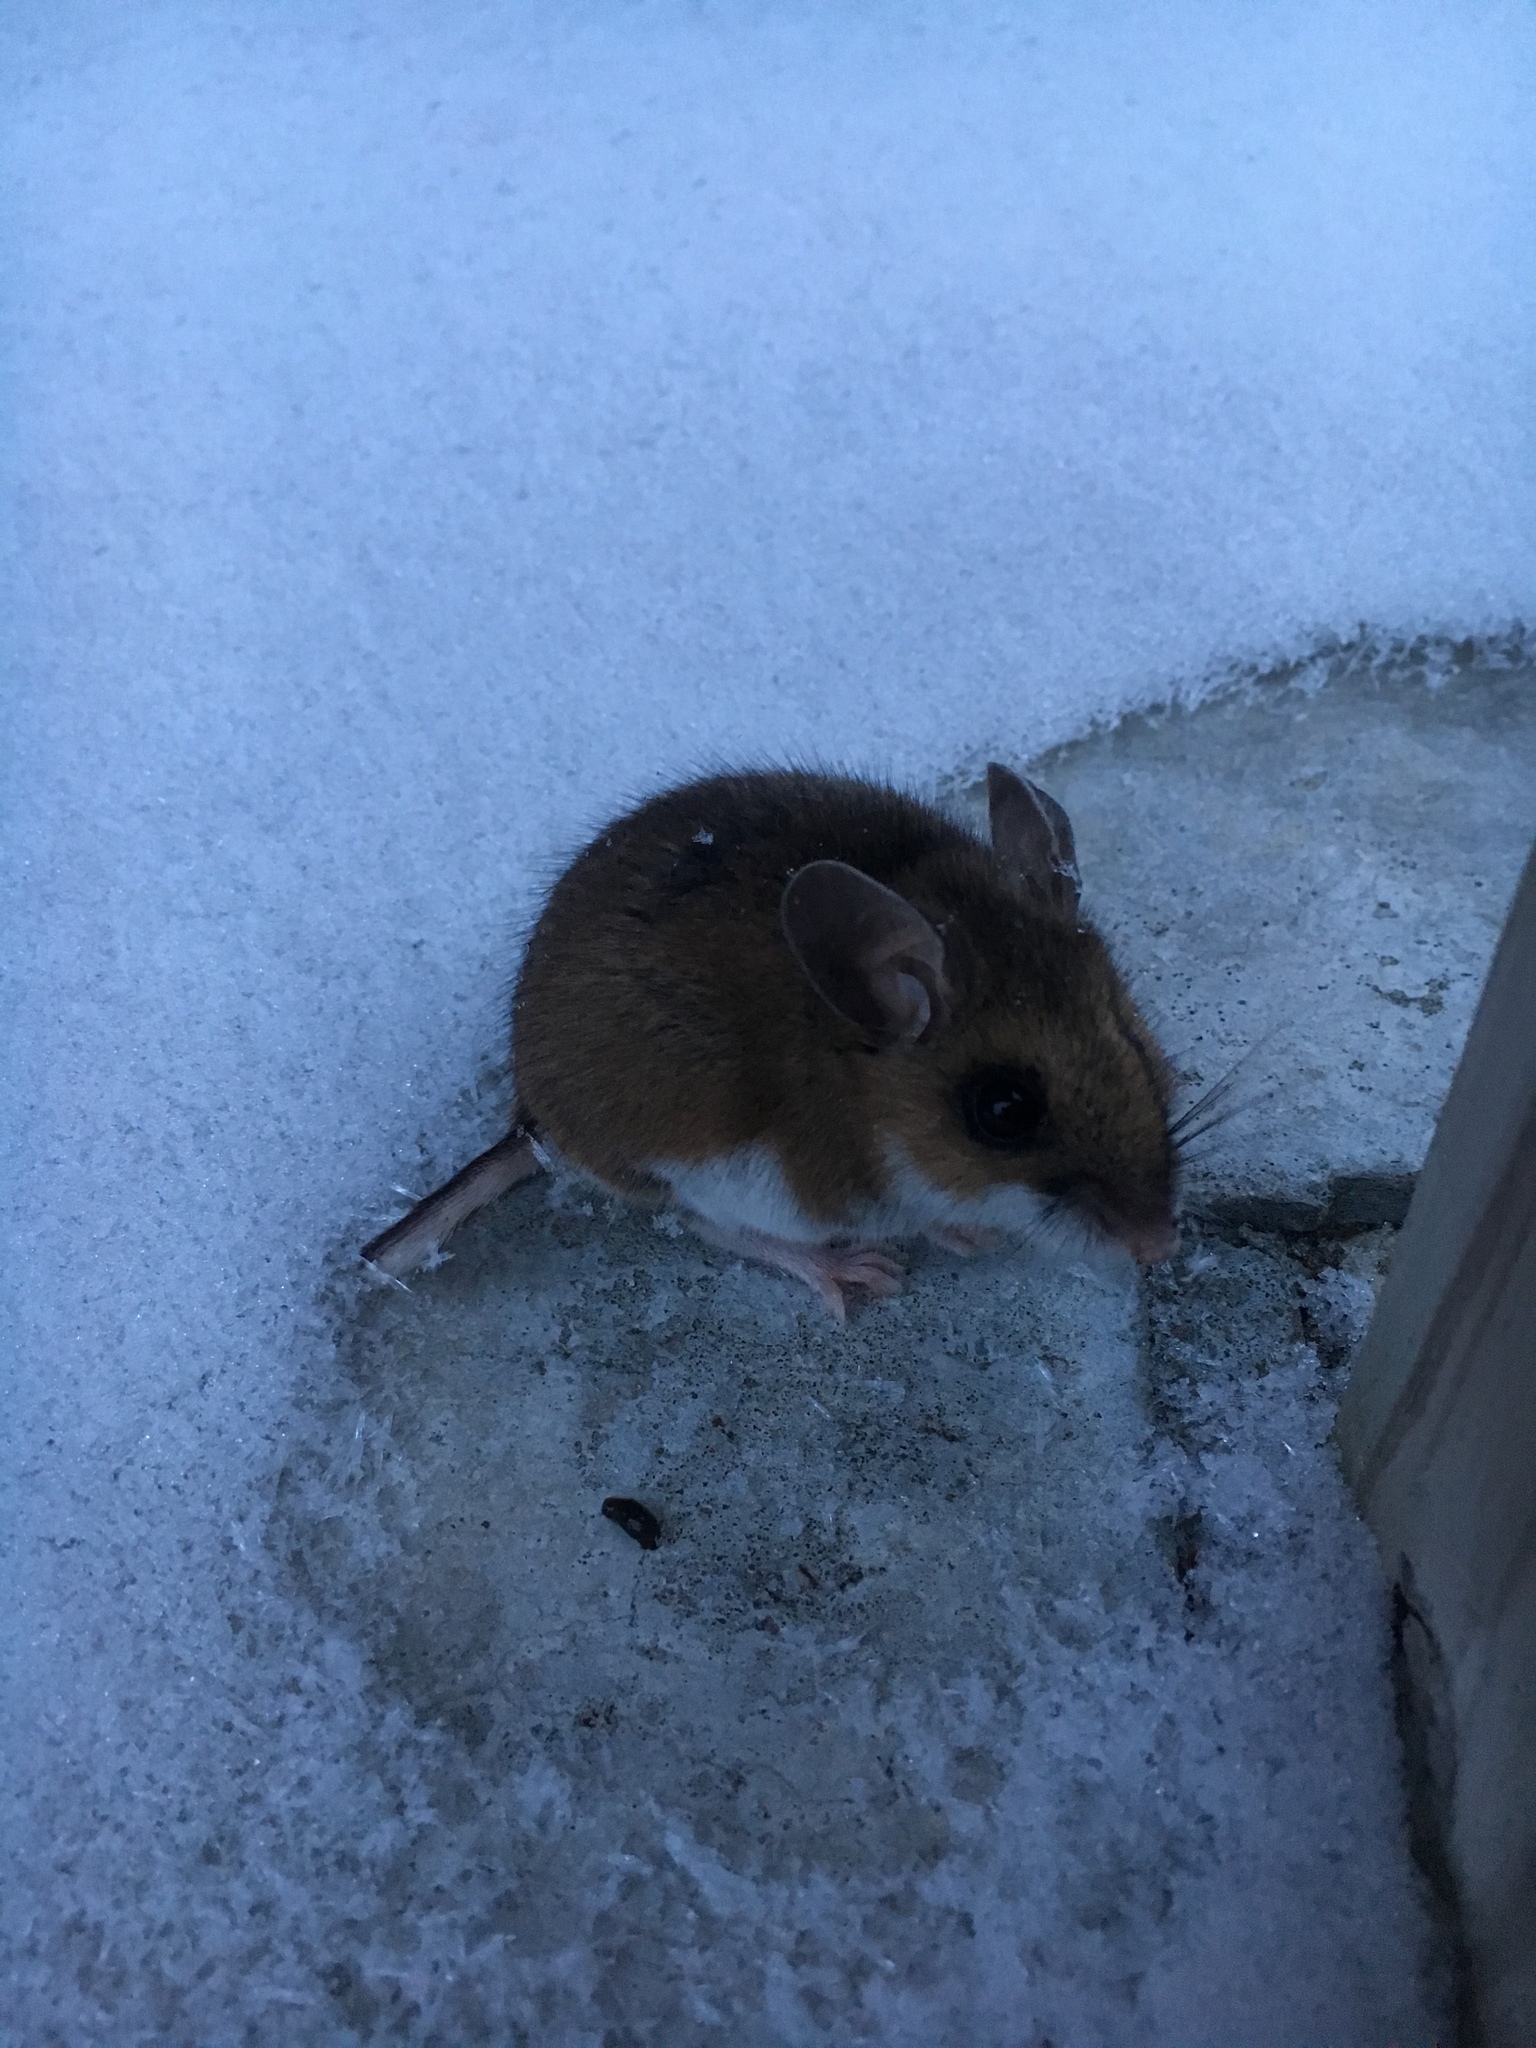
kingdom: Animalia
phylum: Chordata
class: Mammalia
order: Rodentia
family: Cricetidae
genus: Peromyscus
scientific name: Peromyscus maniculatus
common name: Deer mouse
